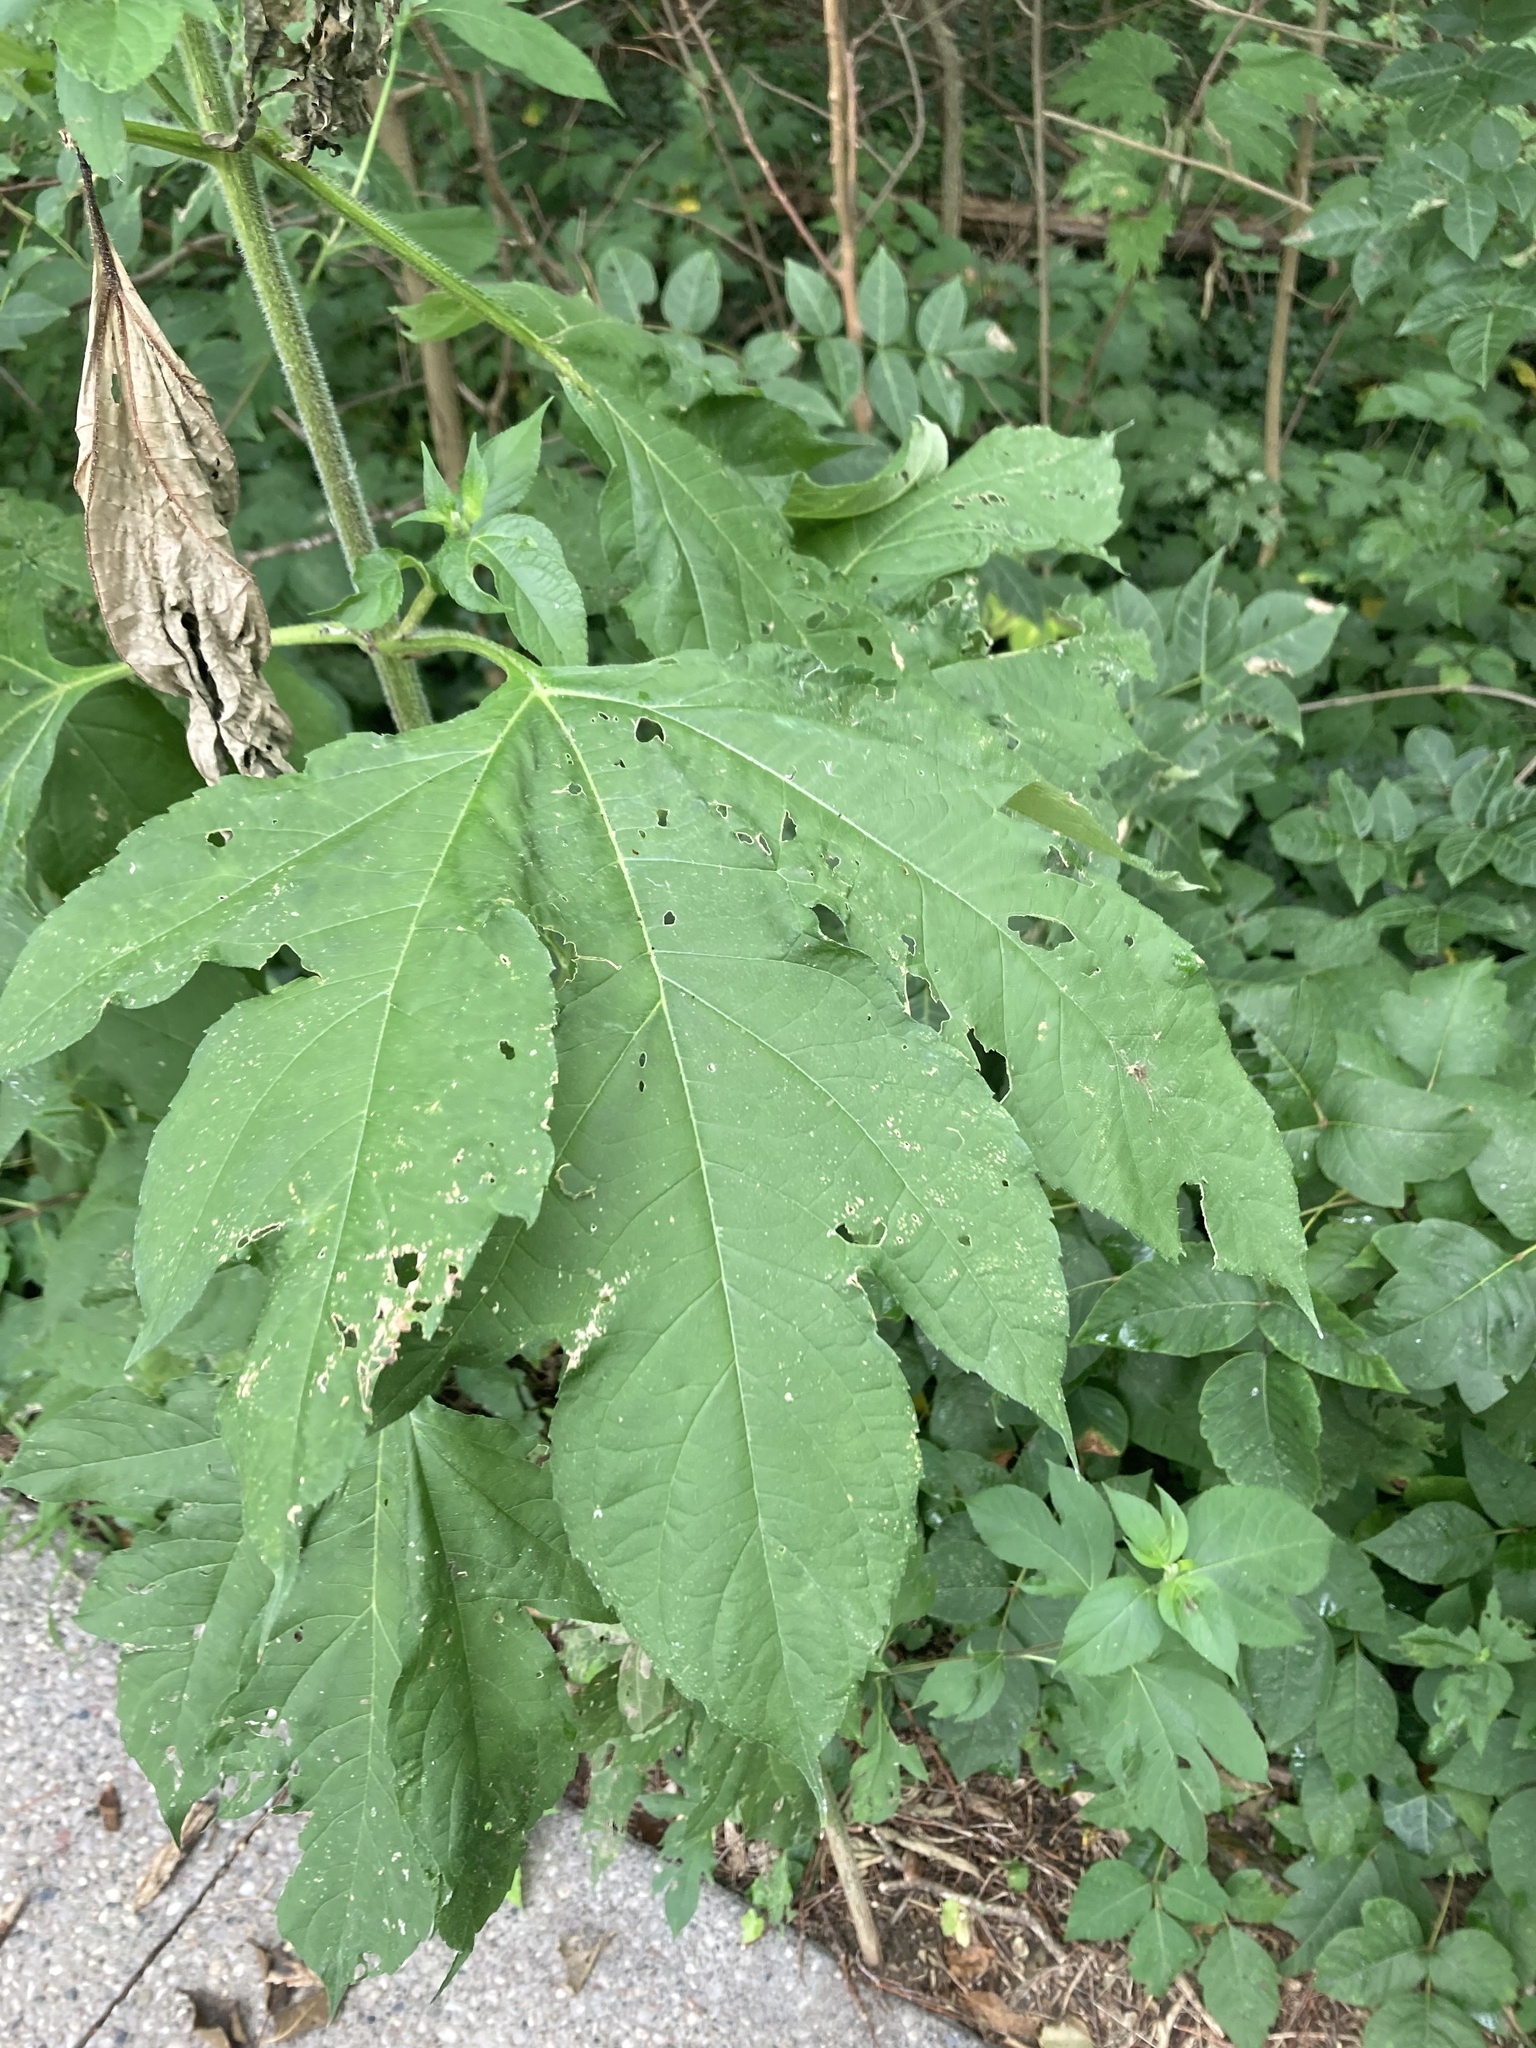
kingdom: Plantae
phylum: Tracheophyta
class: Magnoliopsida
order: Asterales
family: Asteraceae
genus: Ambrosia
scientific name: Ambrosia trifida
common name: Giant ragweed
